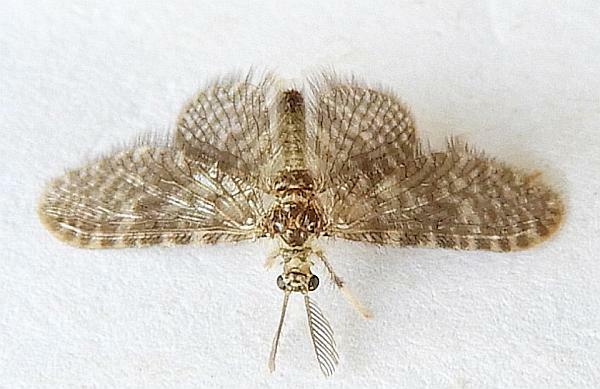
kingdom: Animalia
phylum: Arthropoda
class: Insecta
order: Neuroptera
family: Dilaridae
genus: Nallachius
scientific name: Nallachius pulchellus
